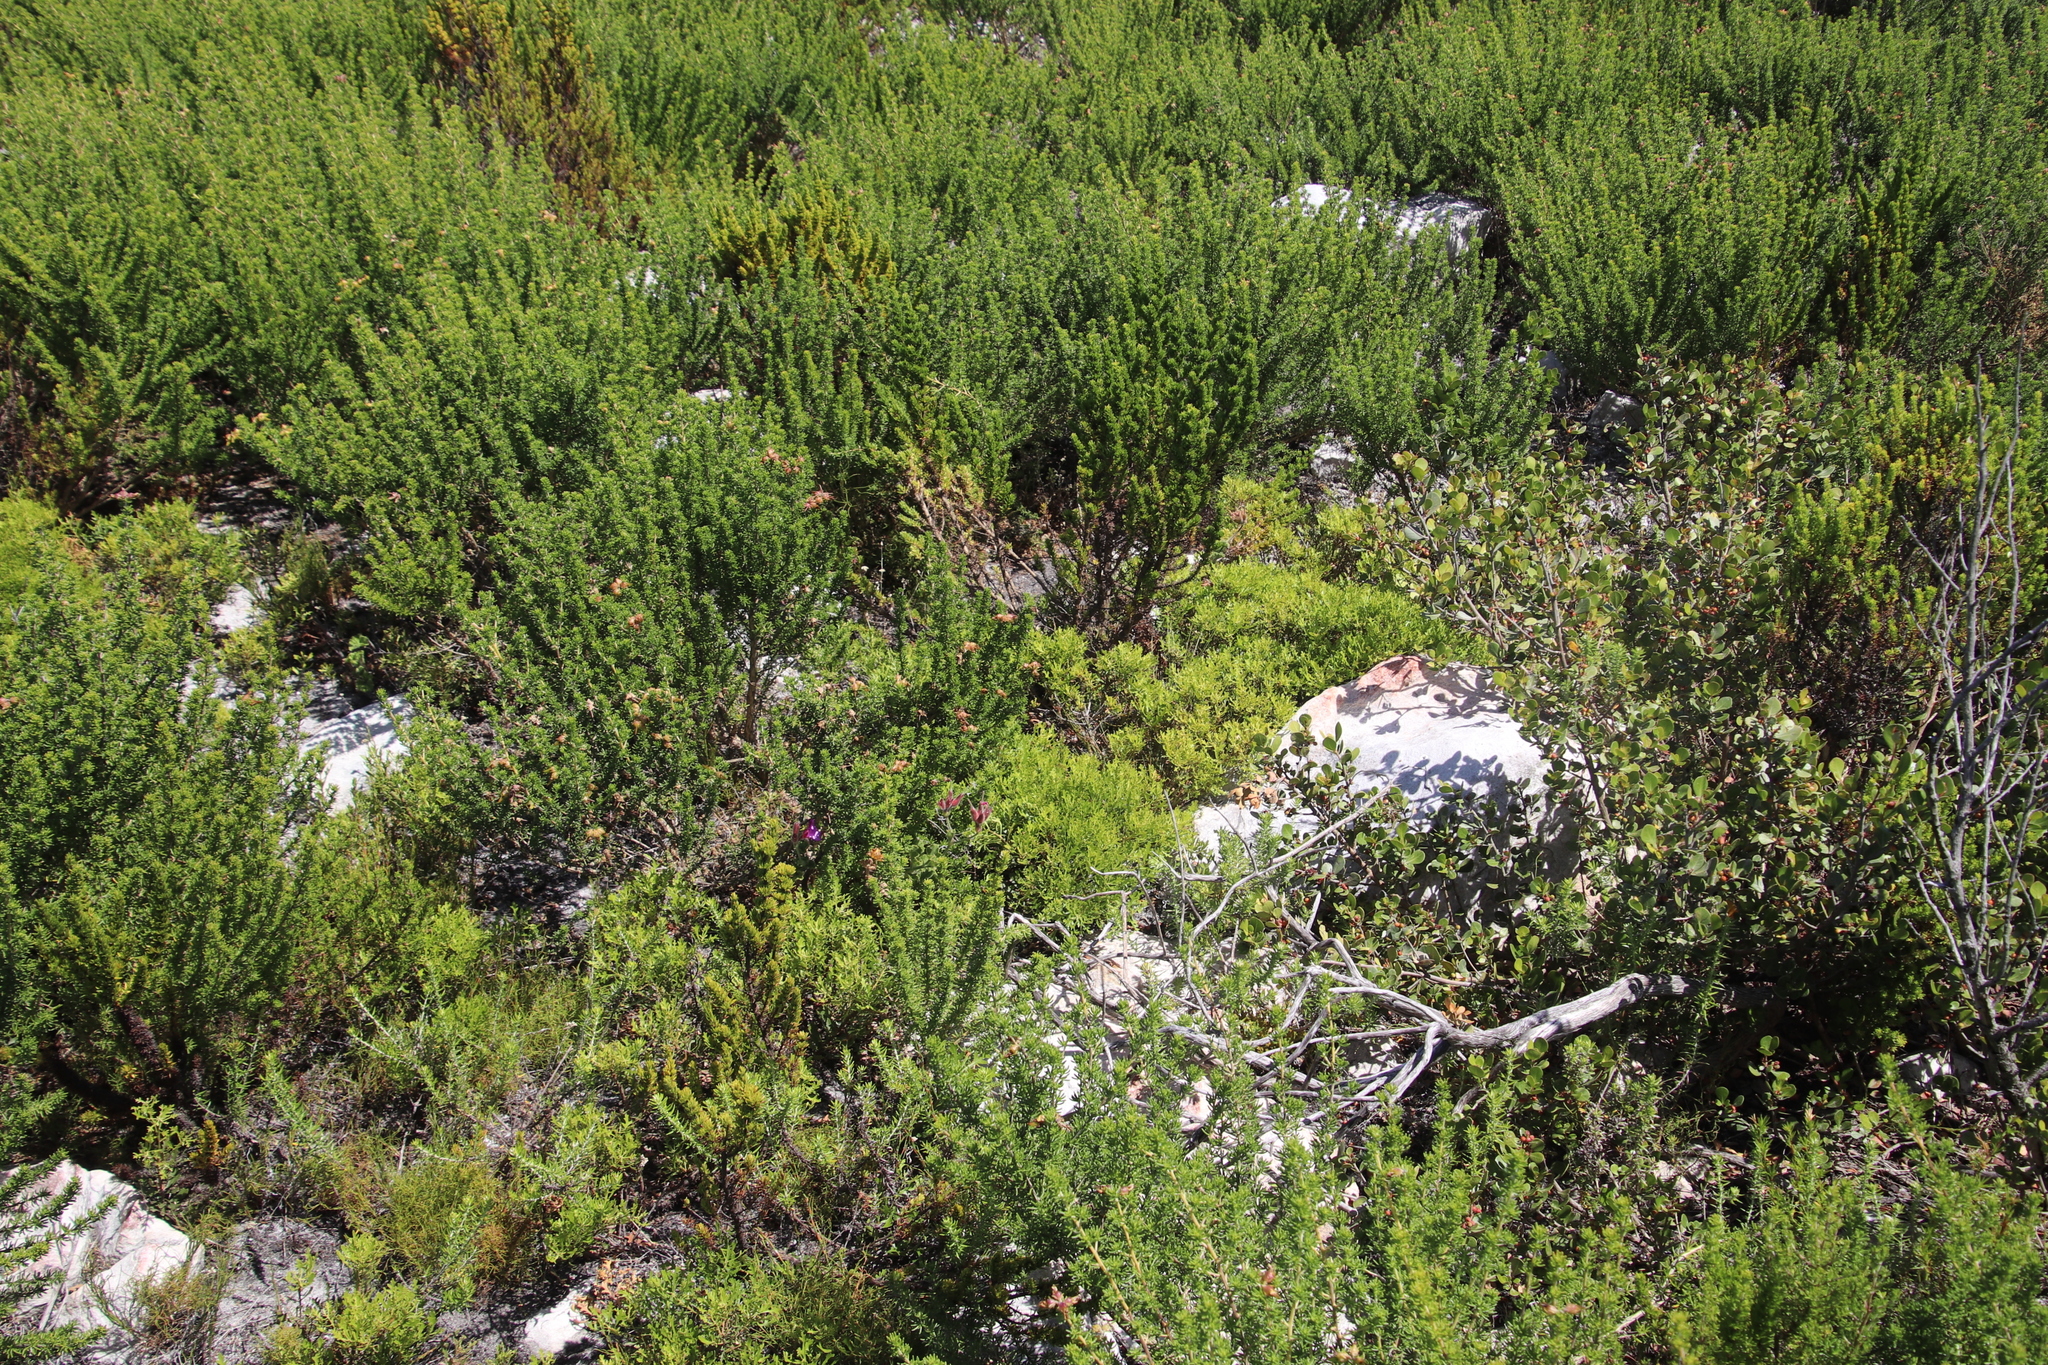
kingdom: Plantae
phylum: Tracheophyta
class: Magnoliopsida
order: Fagales
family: Myricaceae
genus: Morella
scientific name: Morella quercifolia
